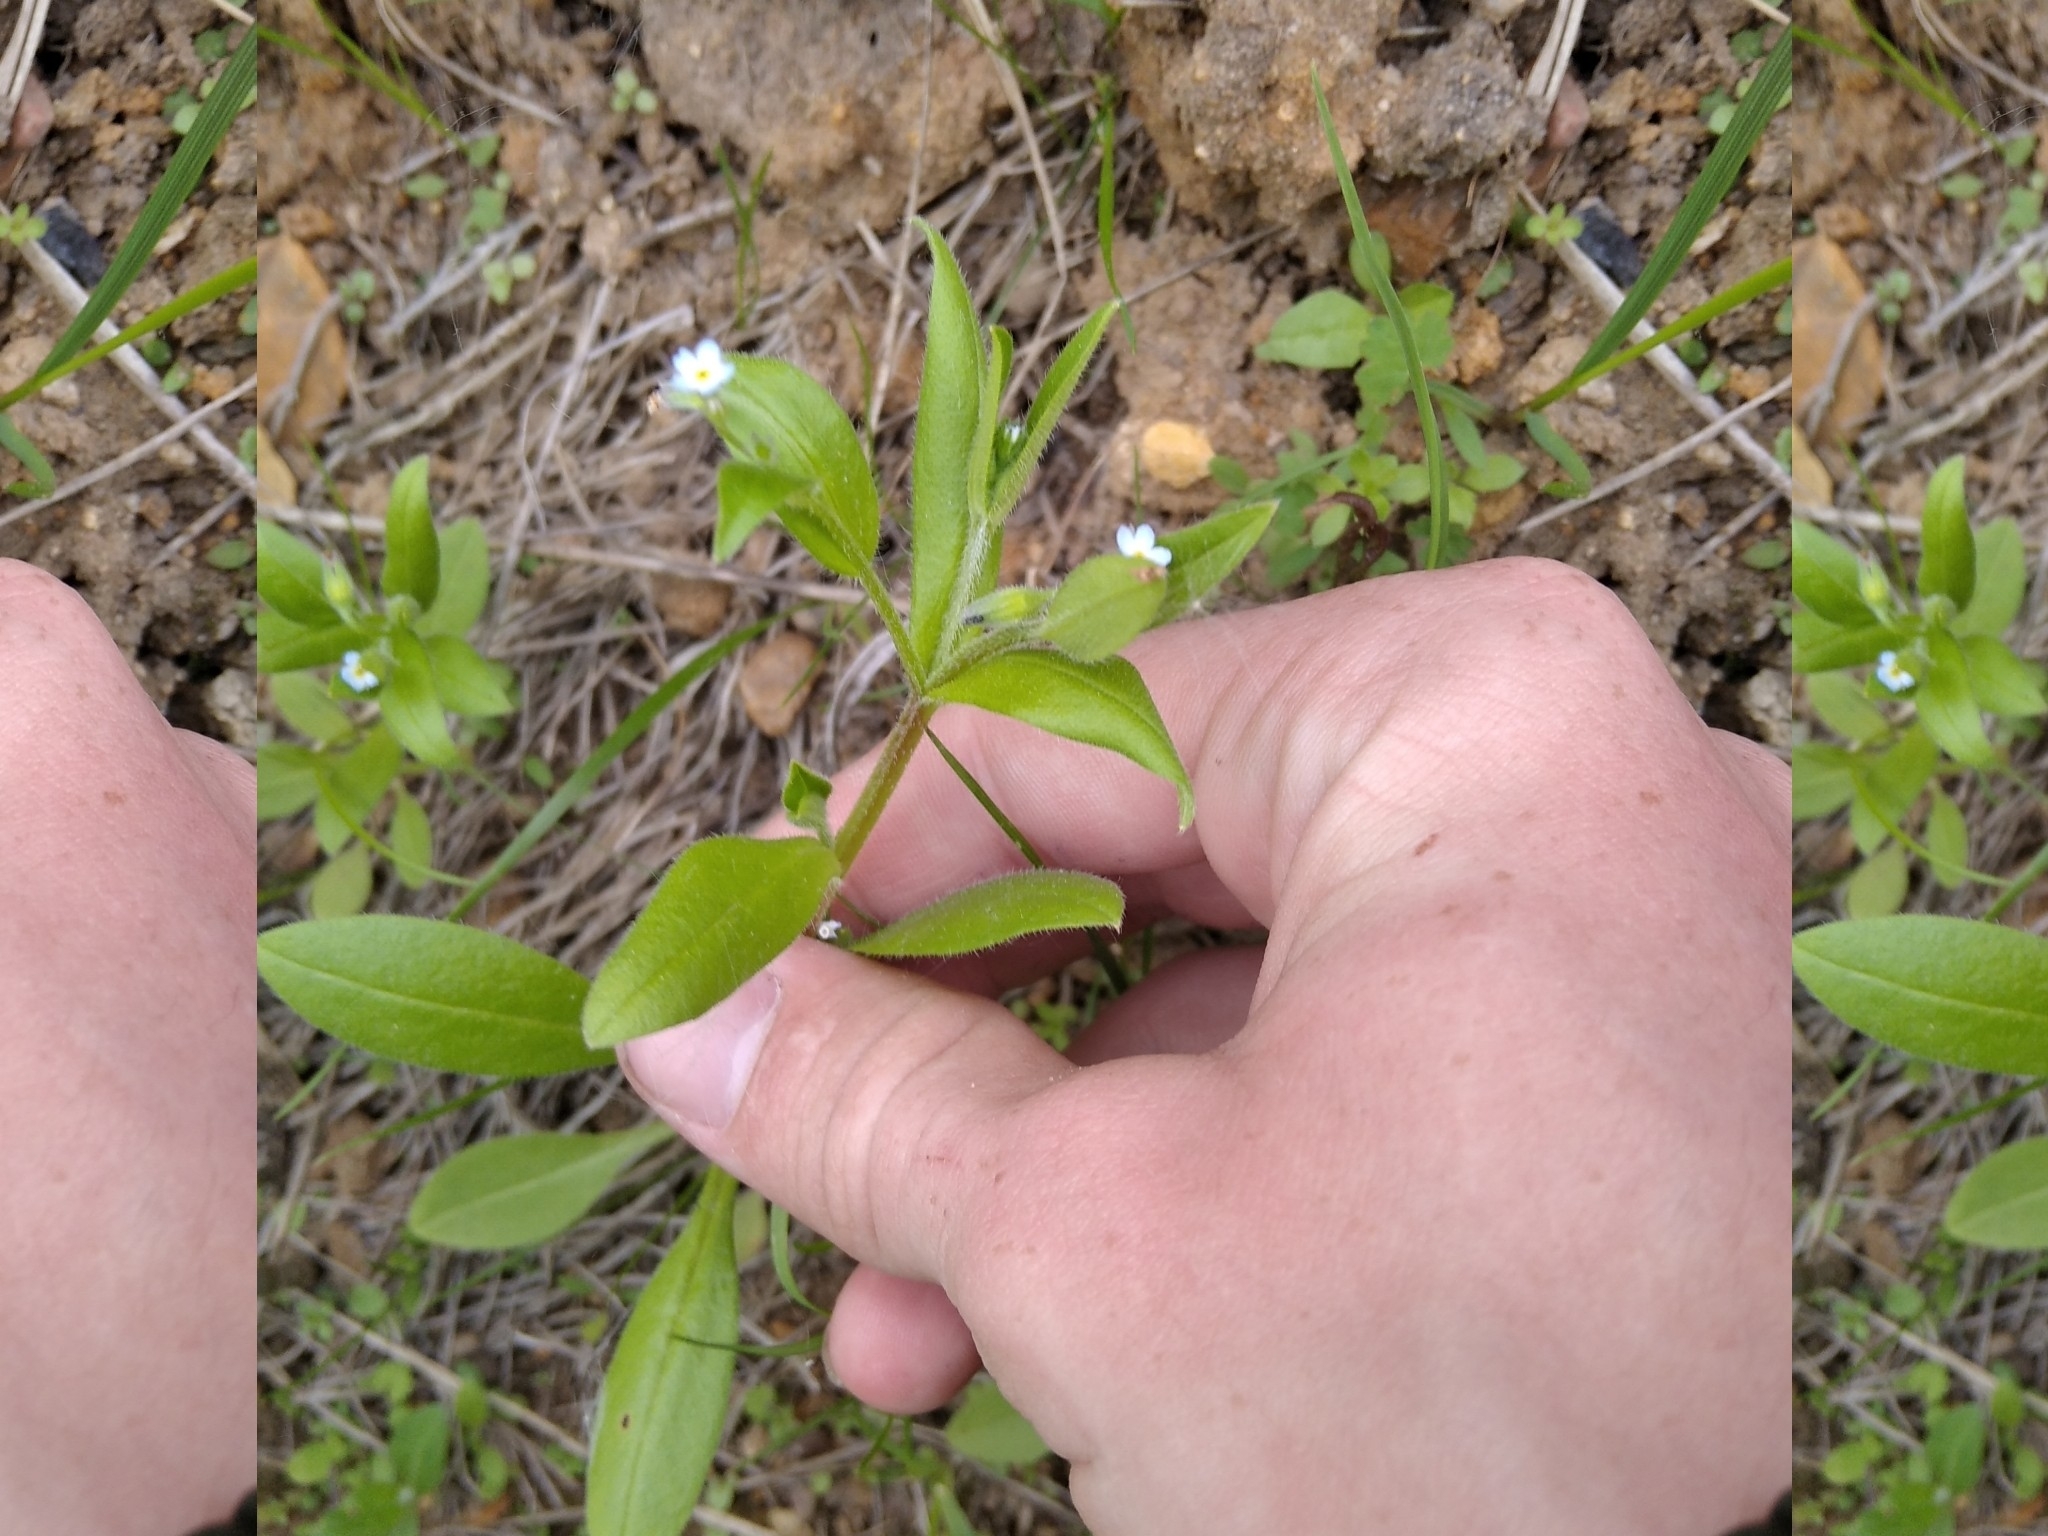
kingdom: Plantae
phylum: Tracheophyta
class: Magnoliopsida
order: Boraginales
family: Boraginaceae
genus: Myosotis
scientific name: Myosotis sparsiflora
